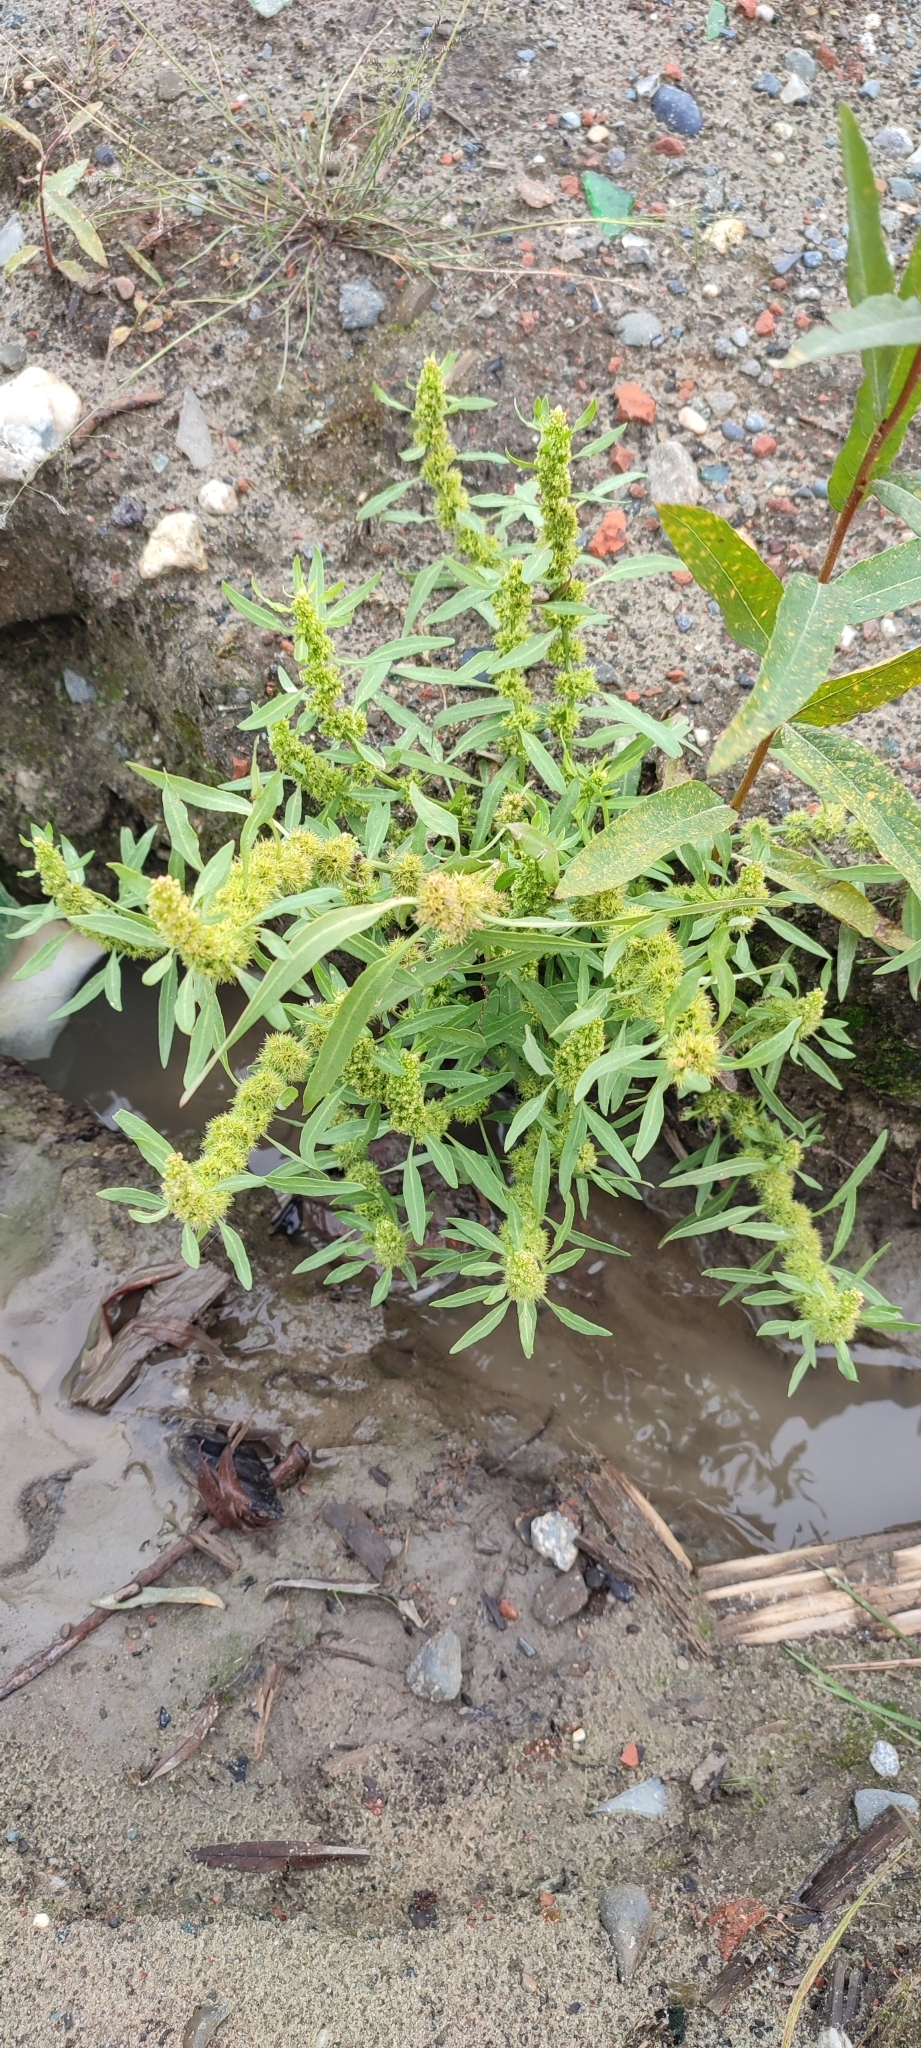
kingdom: Plantae
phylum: Tracheophyta
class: Magnoliopsida
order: Caryophyllales
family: Polygonaceae
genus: Rumex
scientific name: Rumex maritimus
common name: Golden dock
